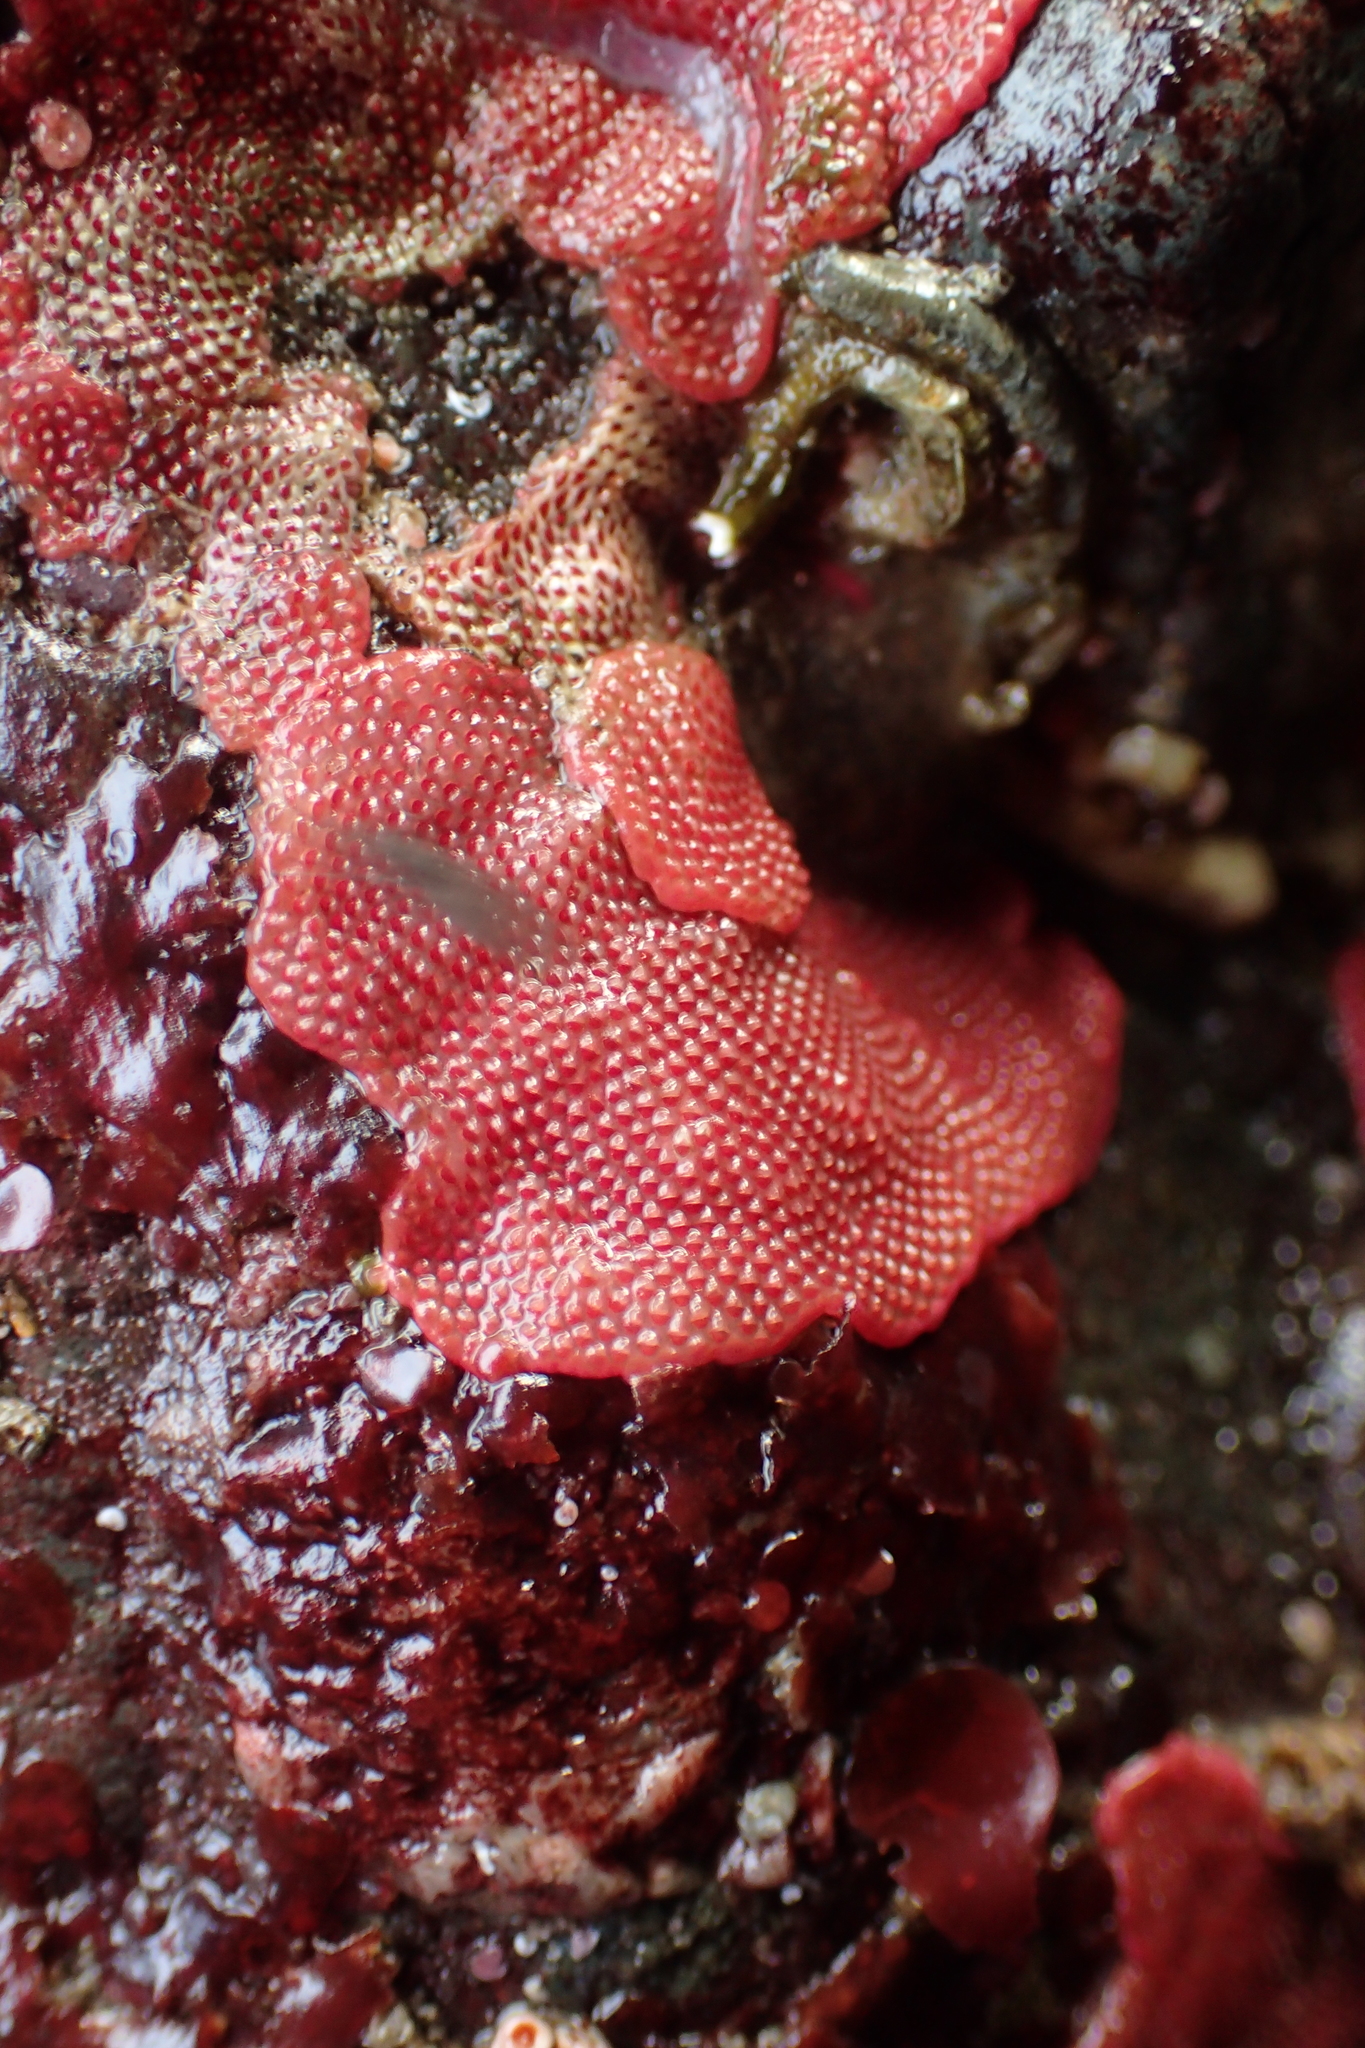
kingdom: Animalia
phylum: Bryozoa
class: Gymnolaemata
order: Cheilostomatida
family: Eurystomellidae
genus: Integripelta
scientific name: Integripelta bilabiata
